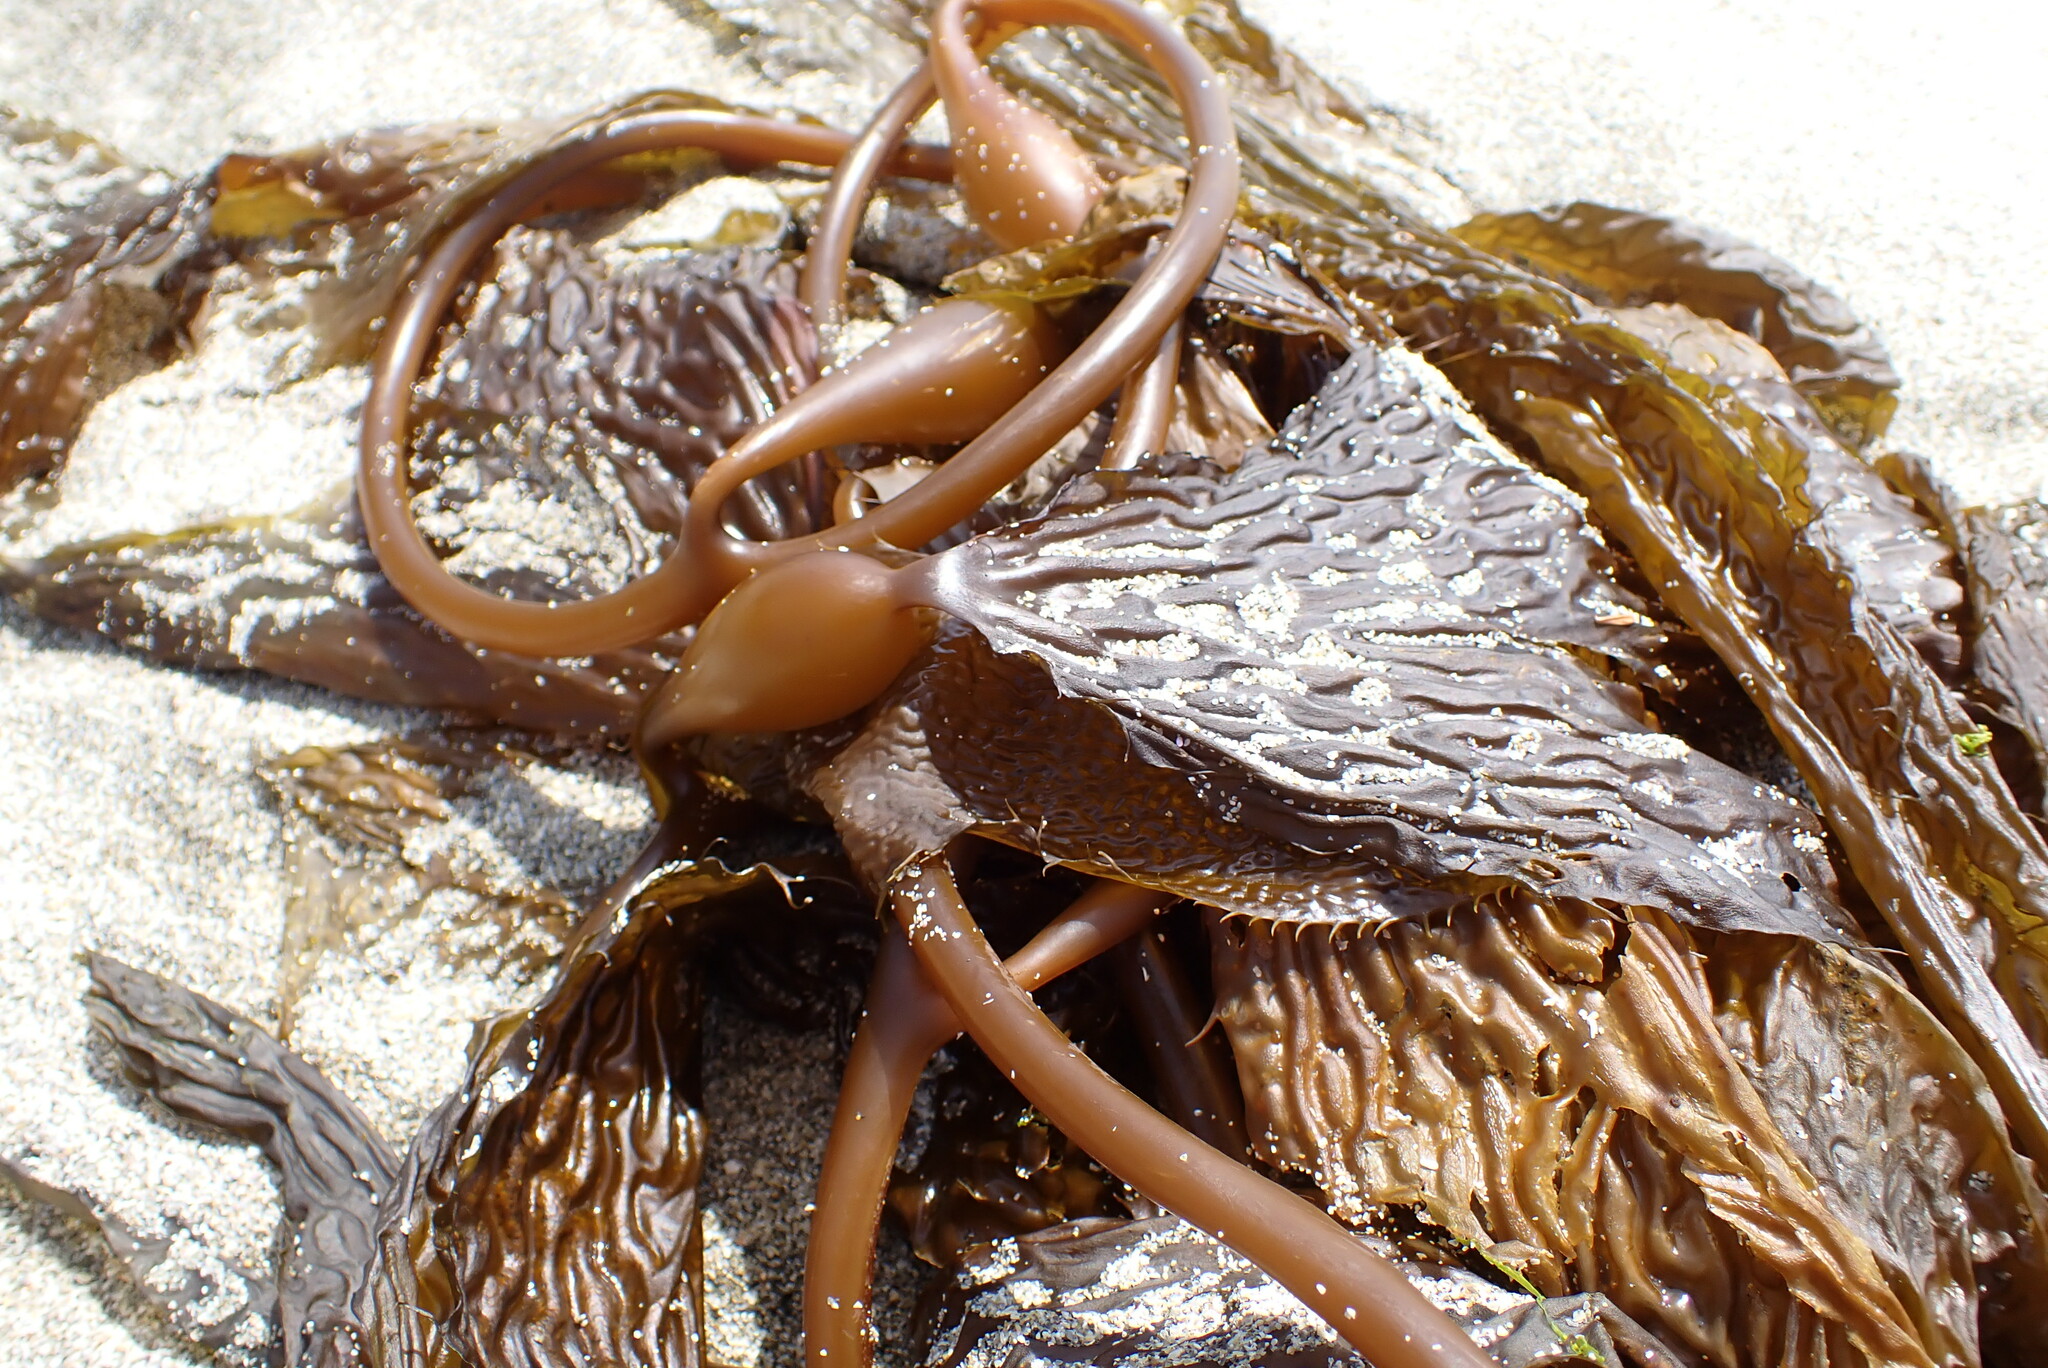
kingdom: Chromista
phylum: Ochrophyta
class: Phaeophyceae
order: Laminariales
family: Laminariaceae
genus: Macrocystis
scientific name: Macrocystis pyrifera
